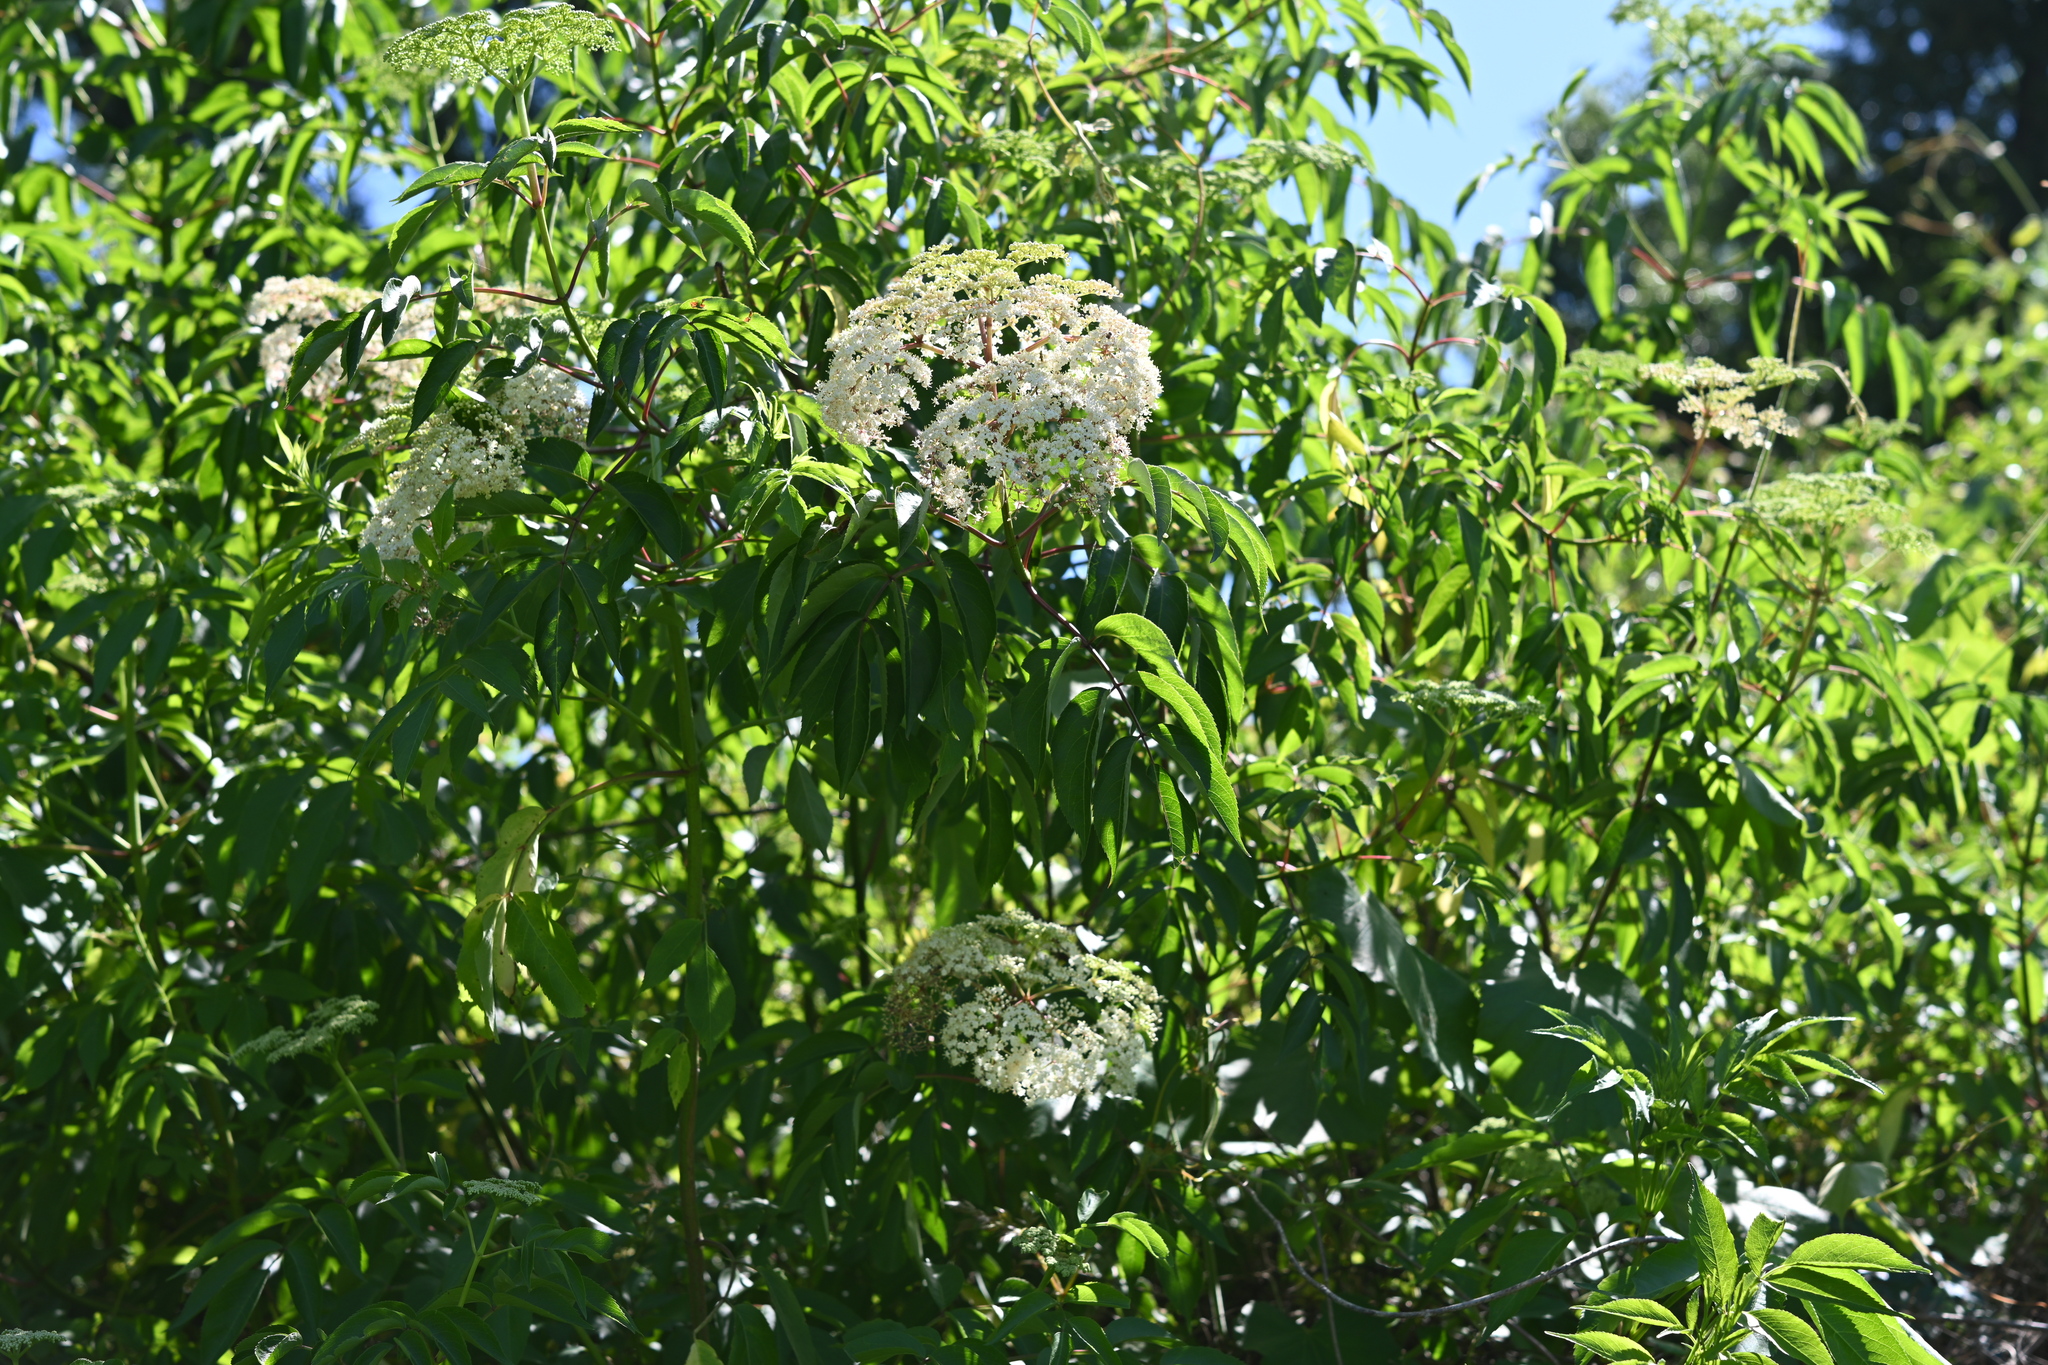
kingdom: Plantae
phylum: Tracheophyta
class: Magnoliopsida
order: Dipsacales
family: Viburnaceae
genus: Sambucus
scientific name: Sambucus canadensis
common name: American elder
